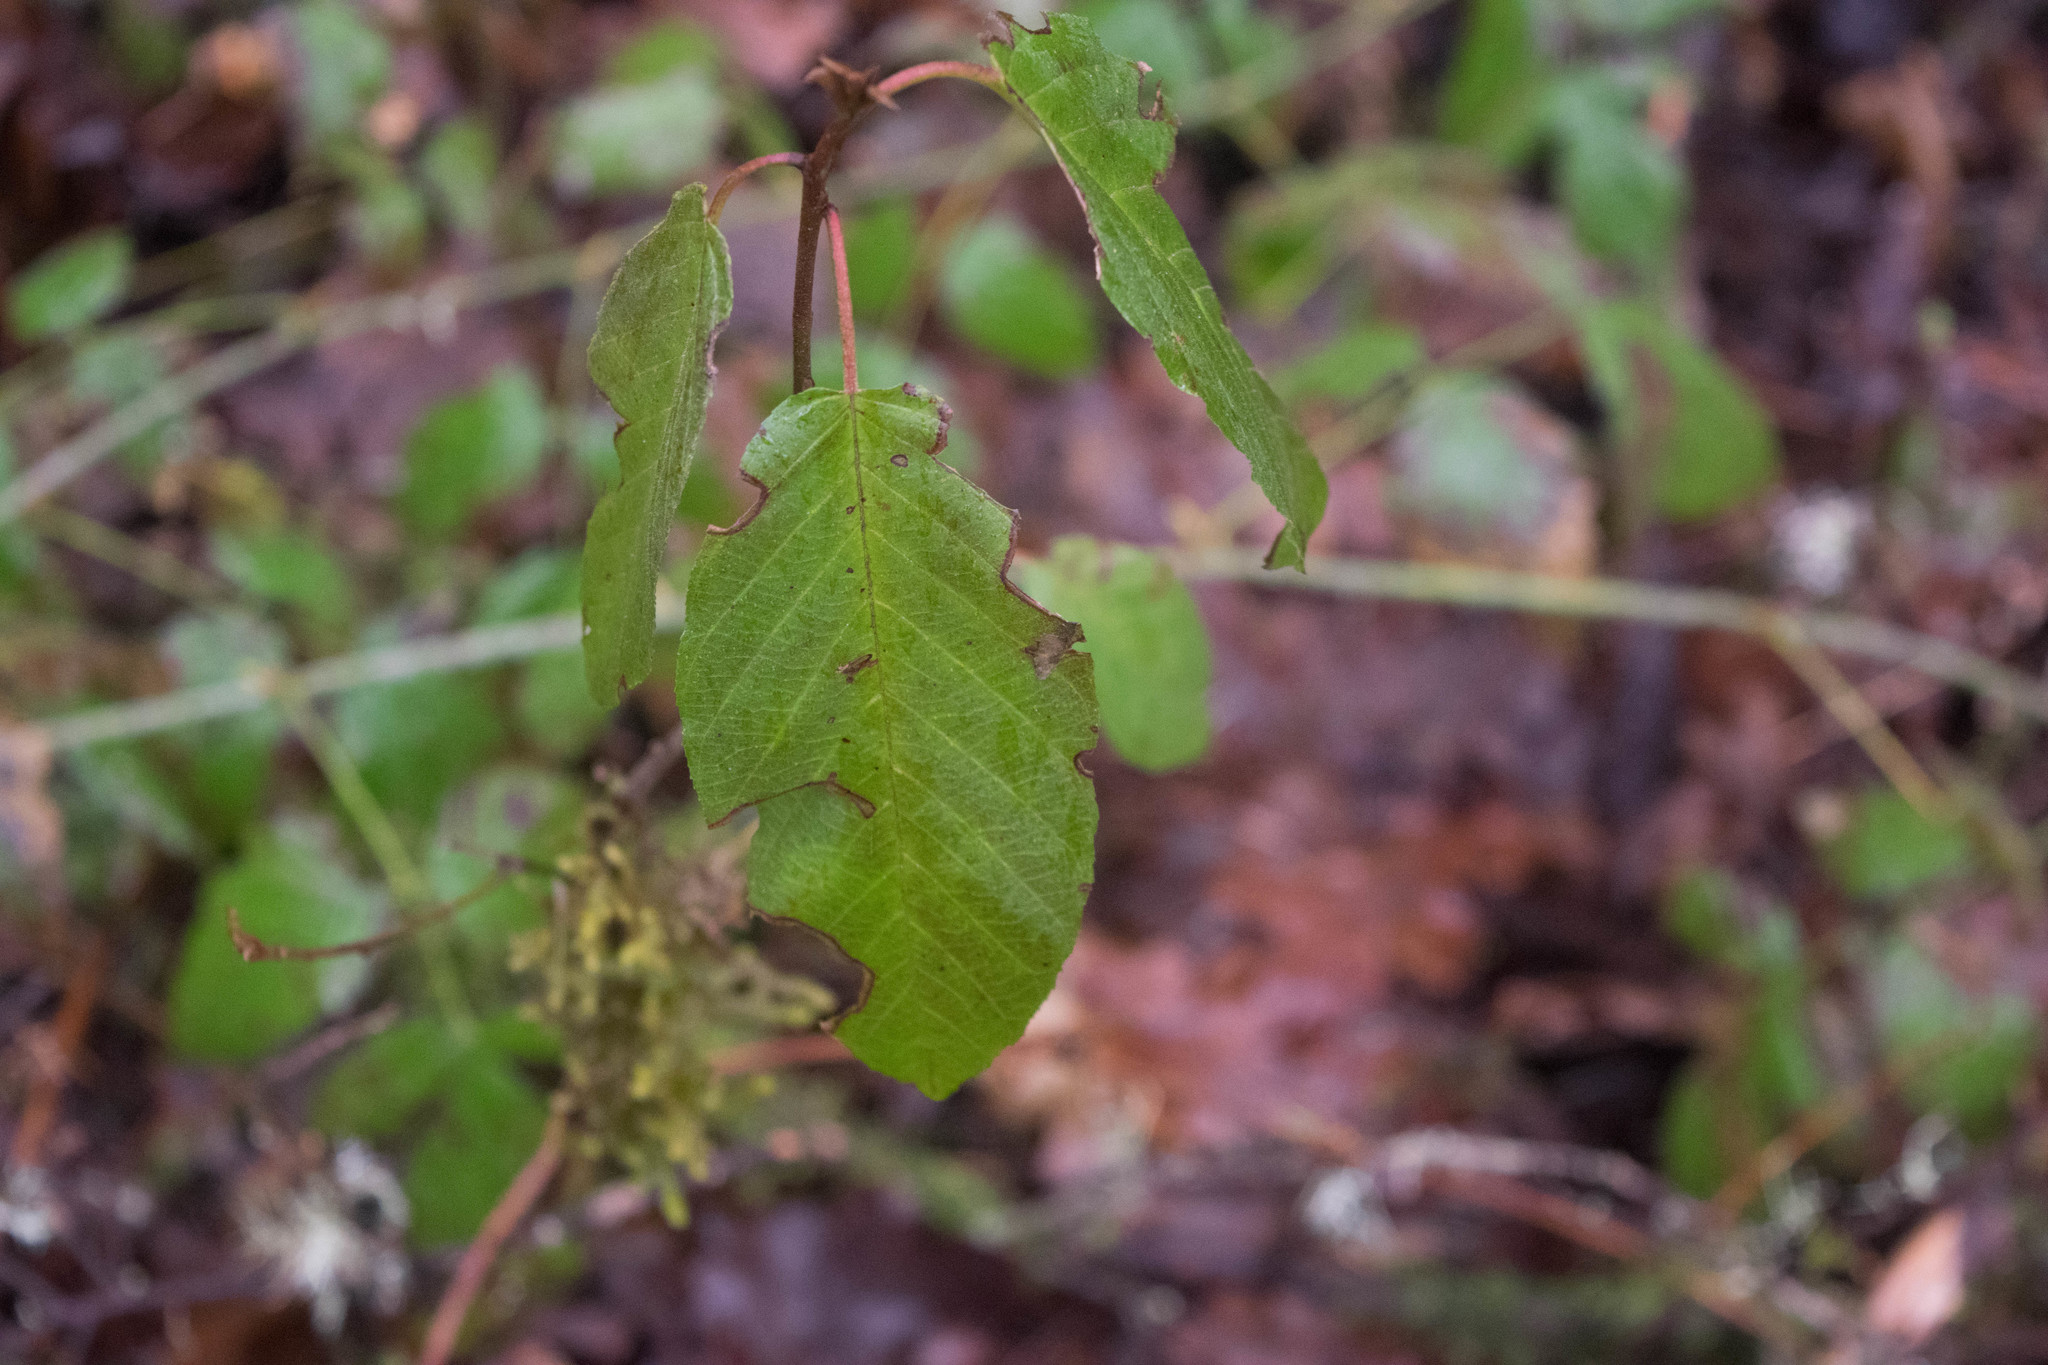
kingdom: Plantae
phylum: Tracheophyta
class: Magnoliopsida
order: Rosales
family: Rhamnaceae
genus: Frangula
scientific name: Frangula purshiana
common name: Cascara buckthorn
